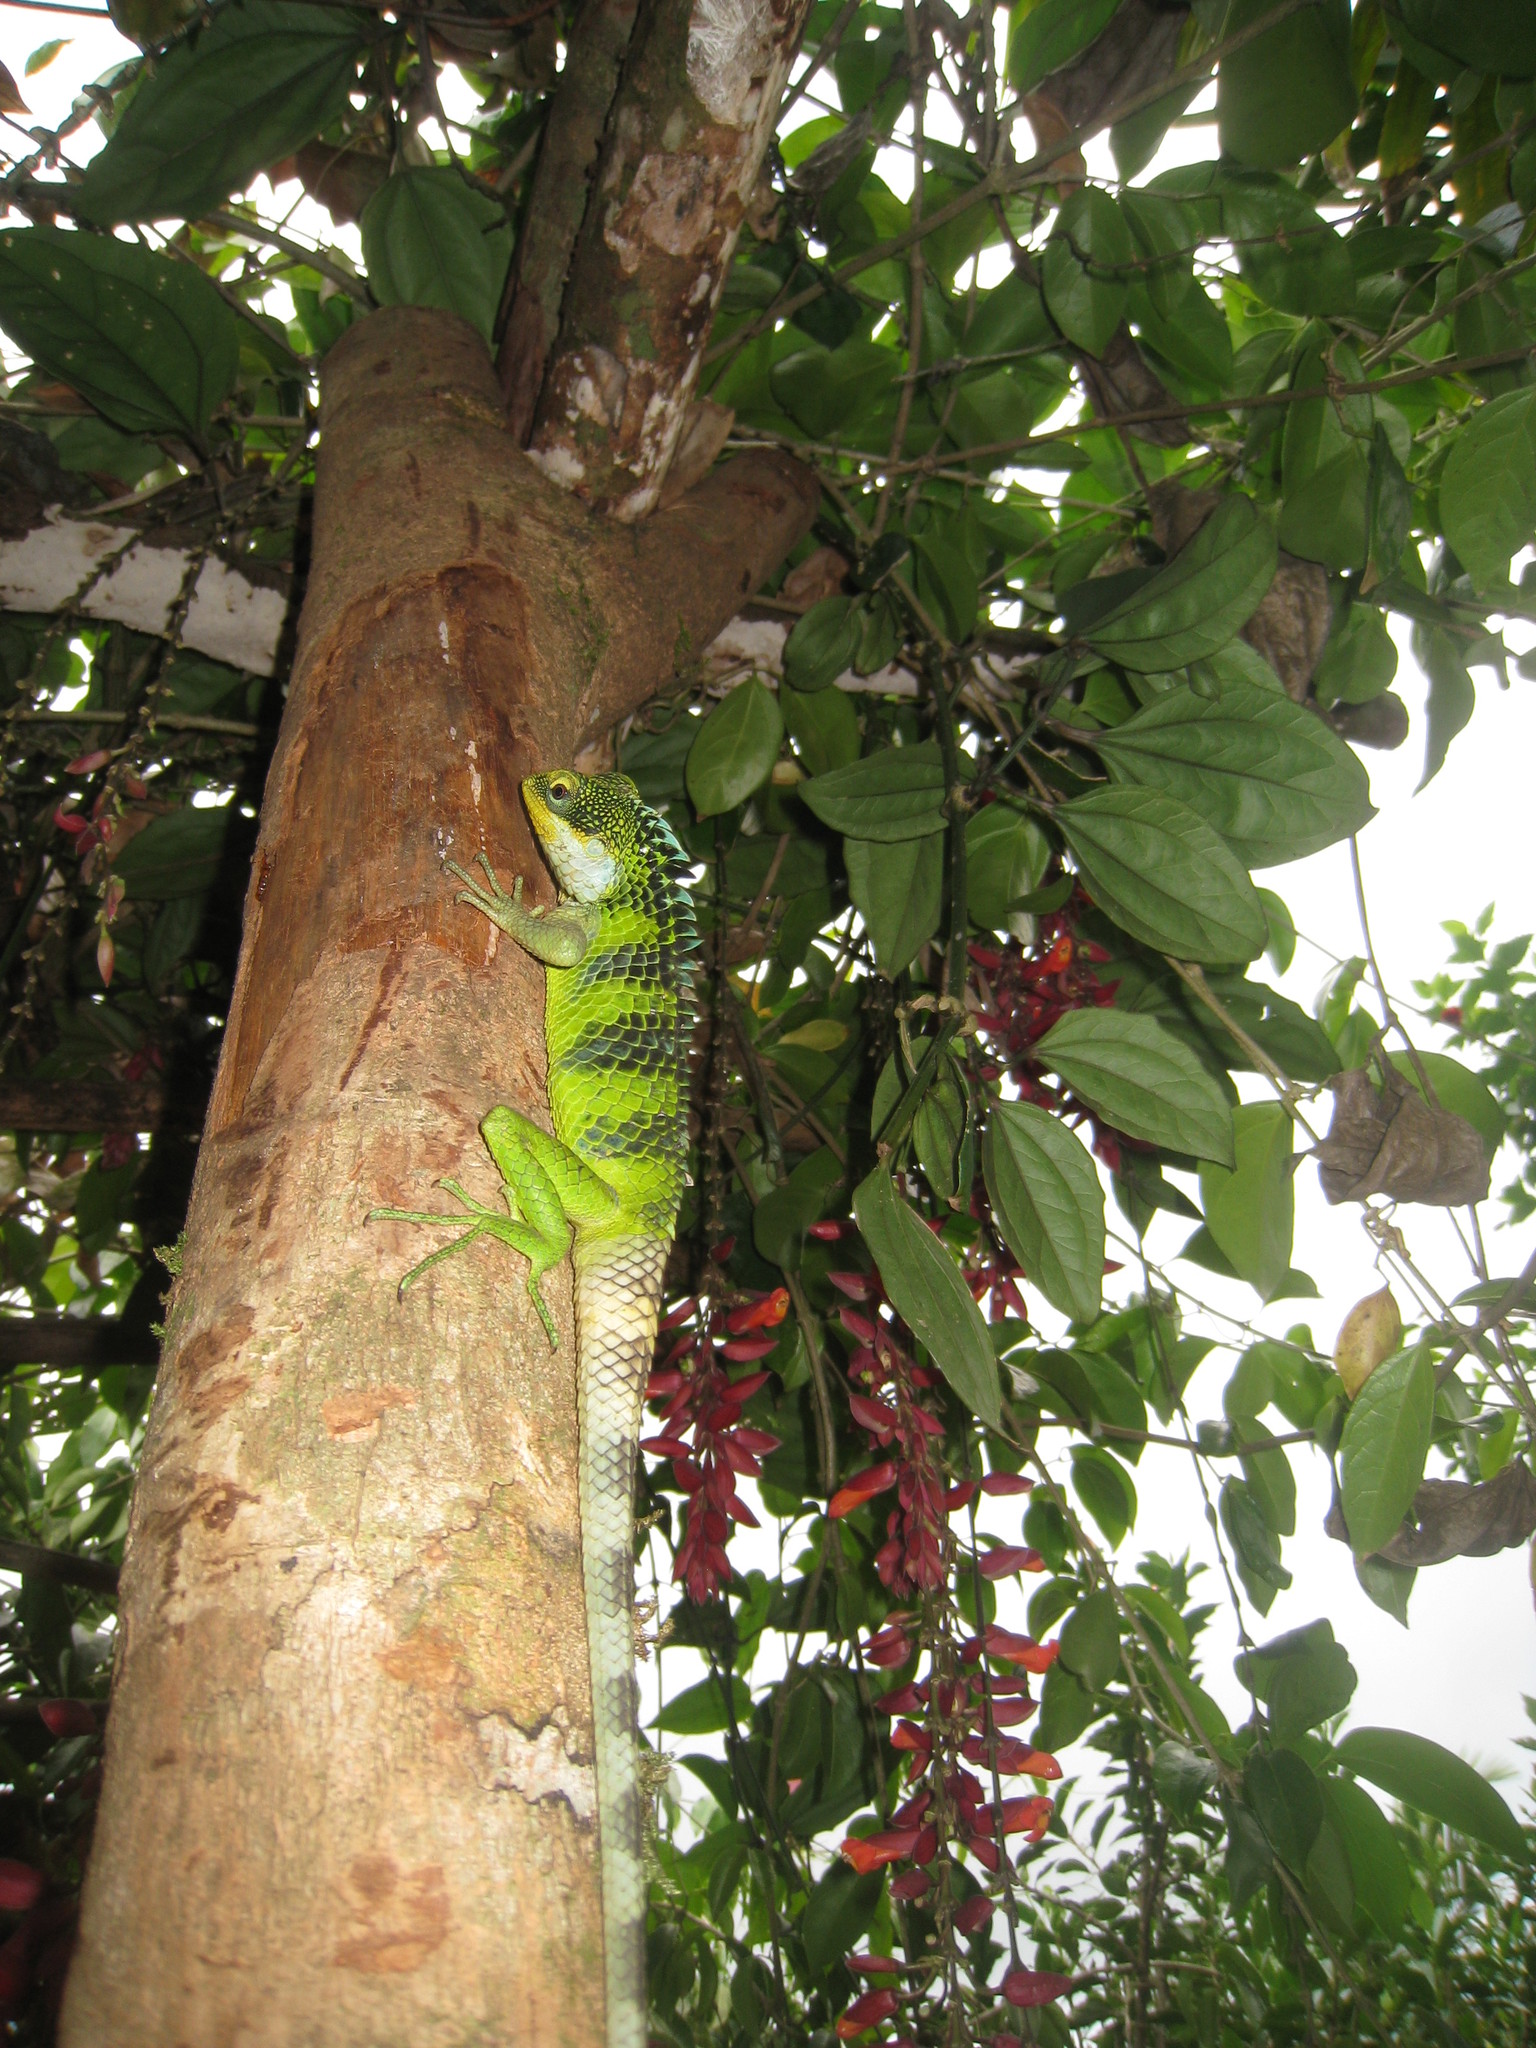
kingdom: Animalia
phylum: Chordata
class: Squamata
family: Agamidae
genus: Calotes
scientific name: Calotes grandisquamis
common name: Big scaled variable lizard
